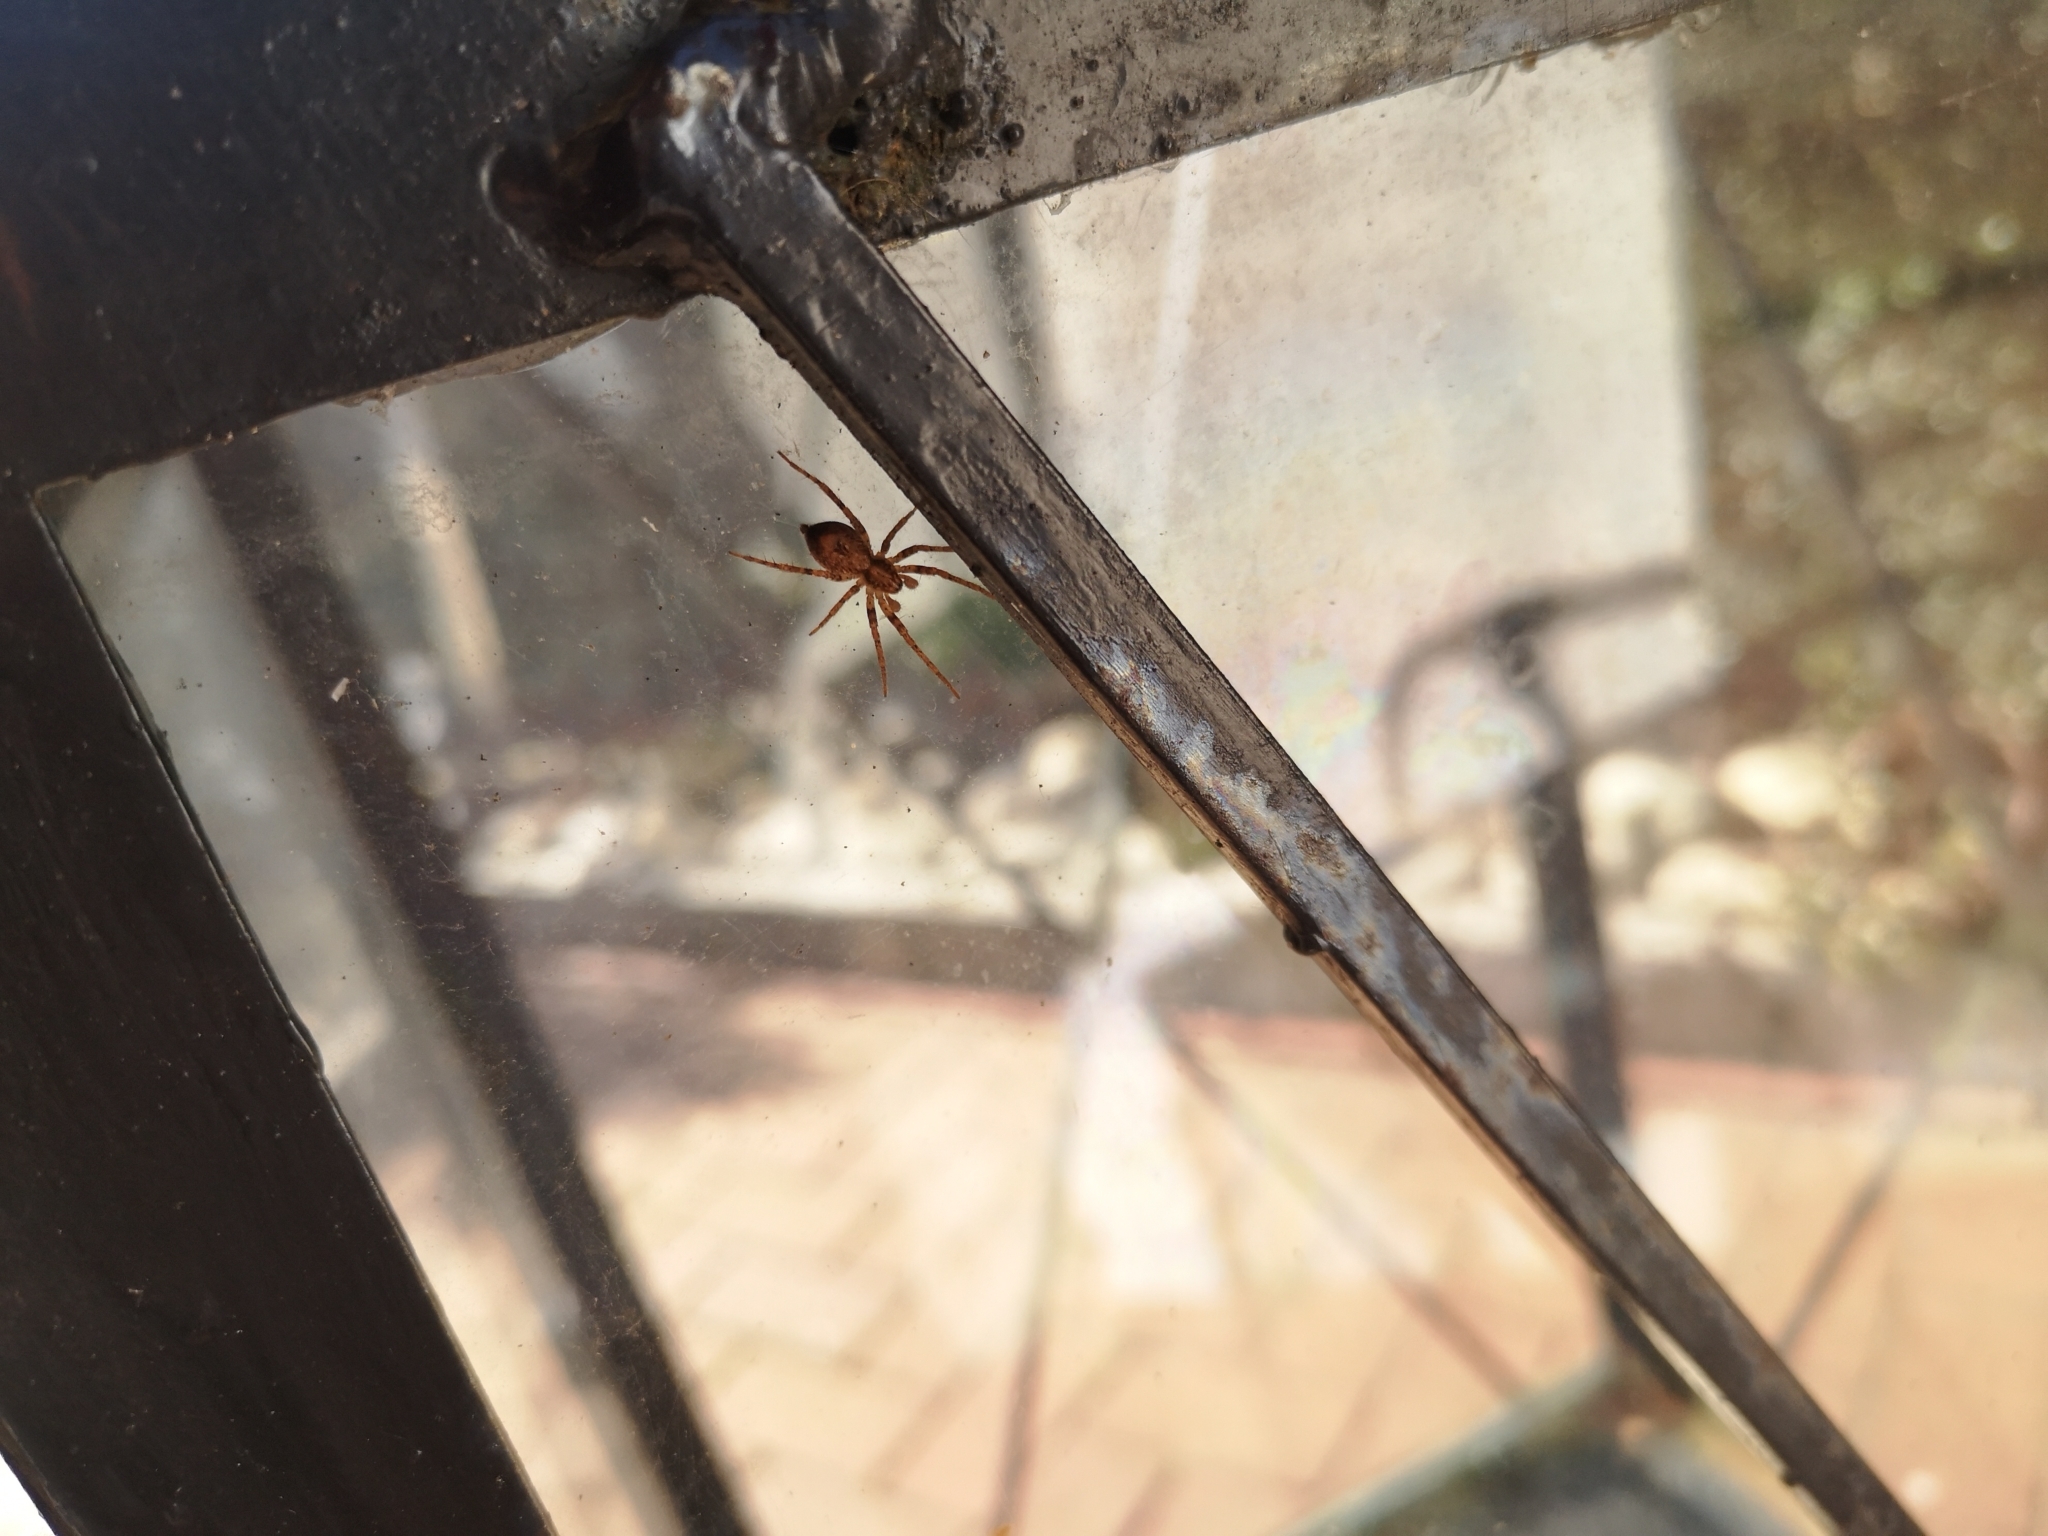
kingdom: Animalia
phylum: Arthropoda
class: Arachnida
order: Araneae
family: Anyphaenidae
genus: Anyphaena
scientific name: Anyphaena accentuata
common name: Buzzing spider
